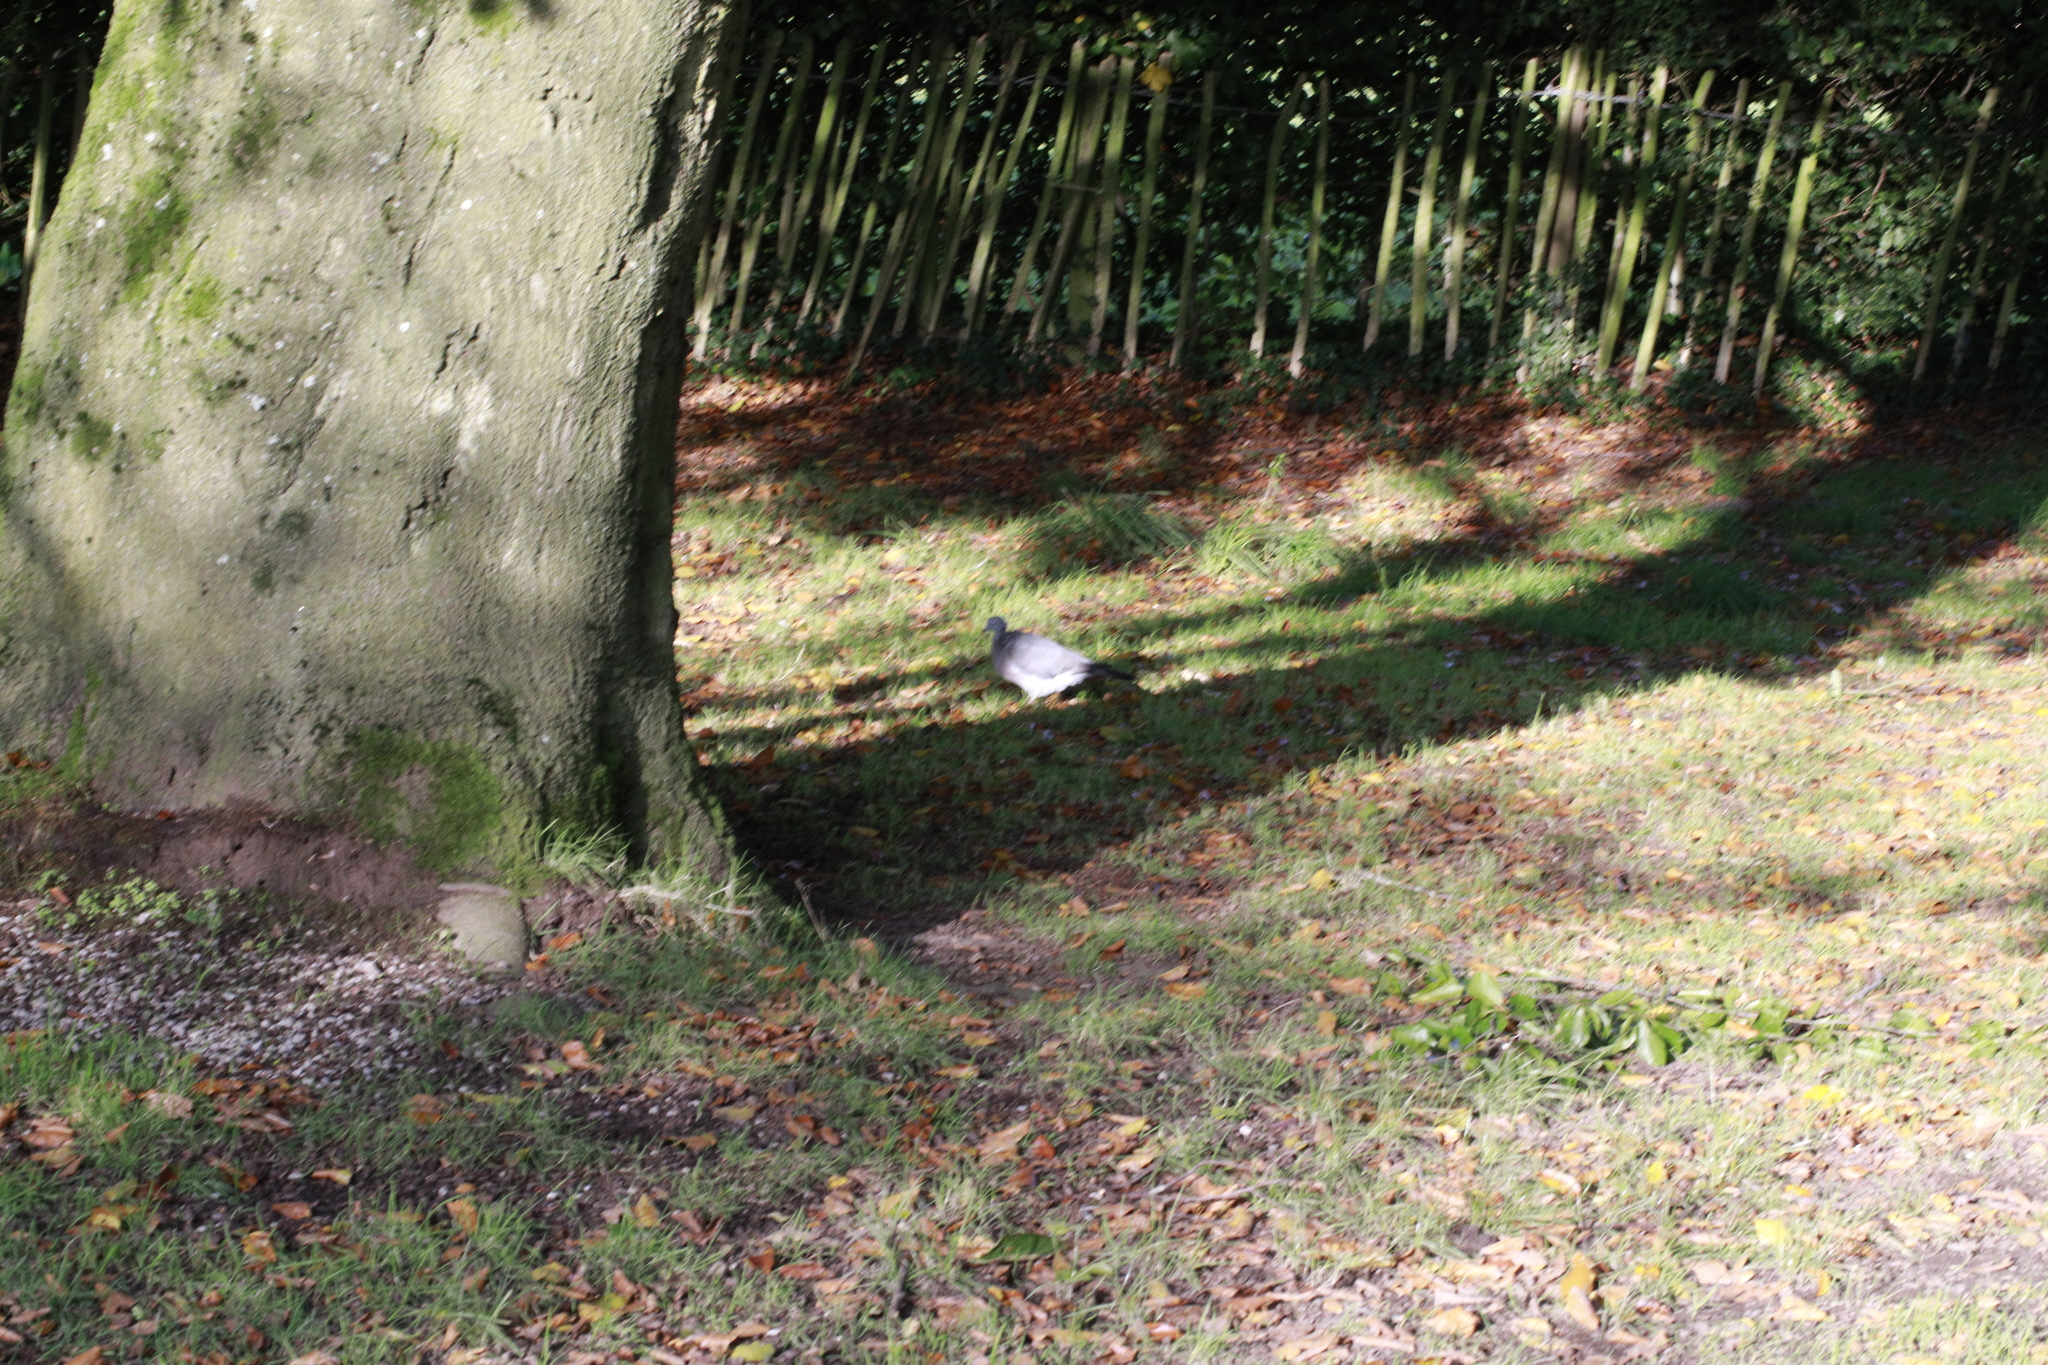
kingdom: Animalia
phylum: Chordata
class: Aves
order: Columbiformes
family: Columbidae
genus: Columba
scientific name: Columba palumbus
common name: Common wood pigeon
